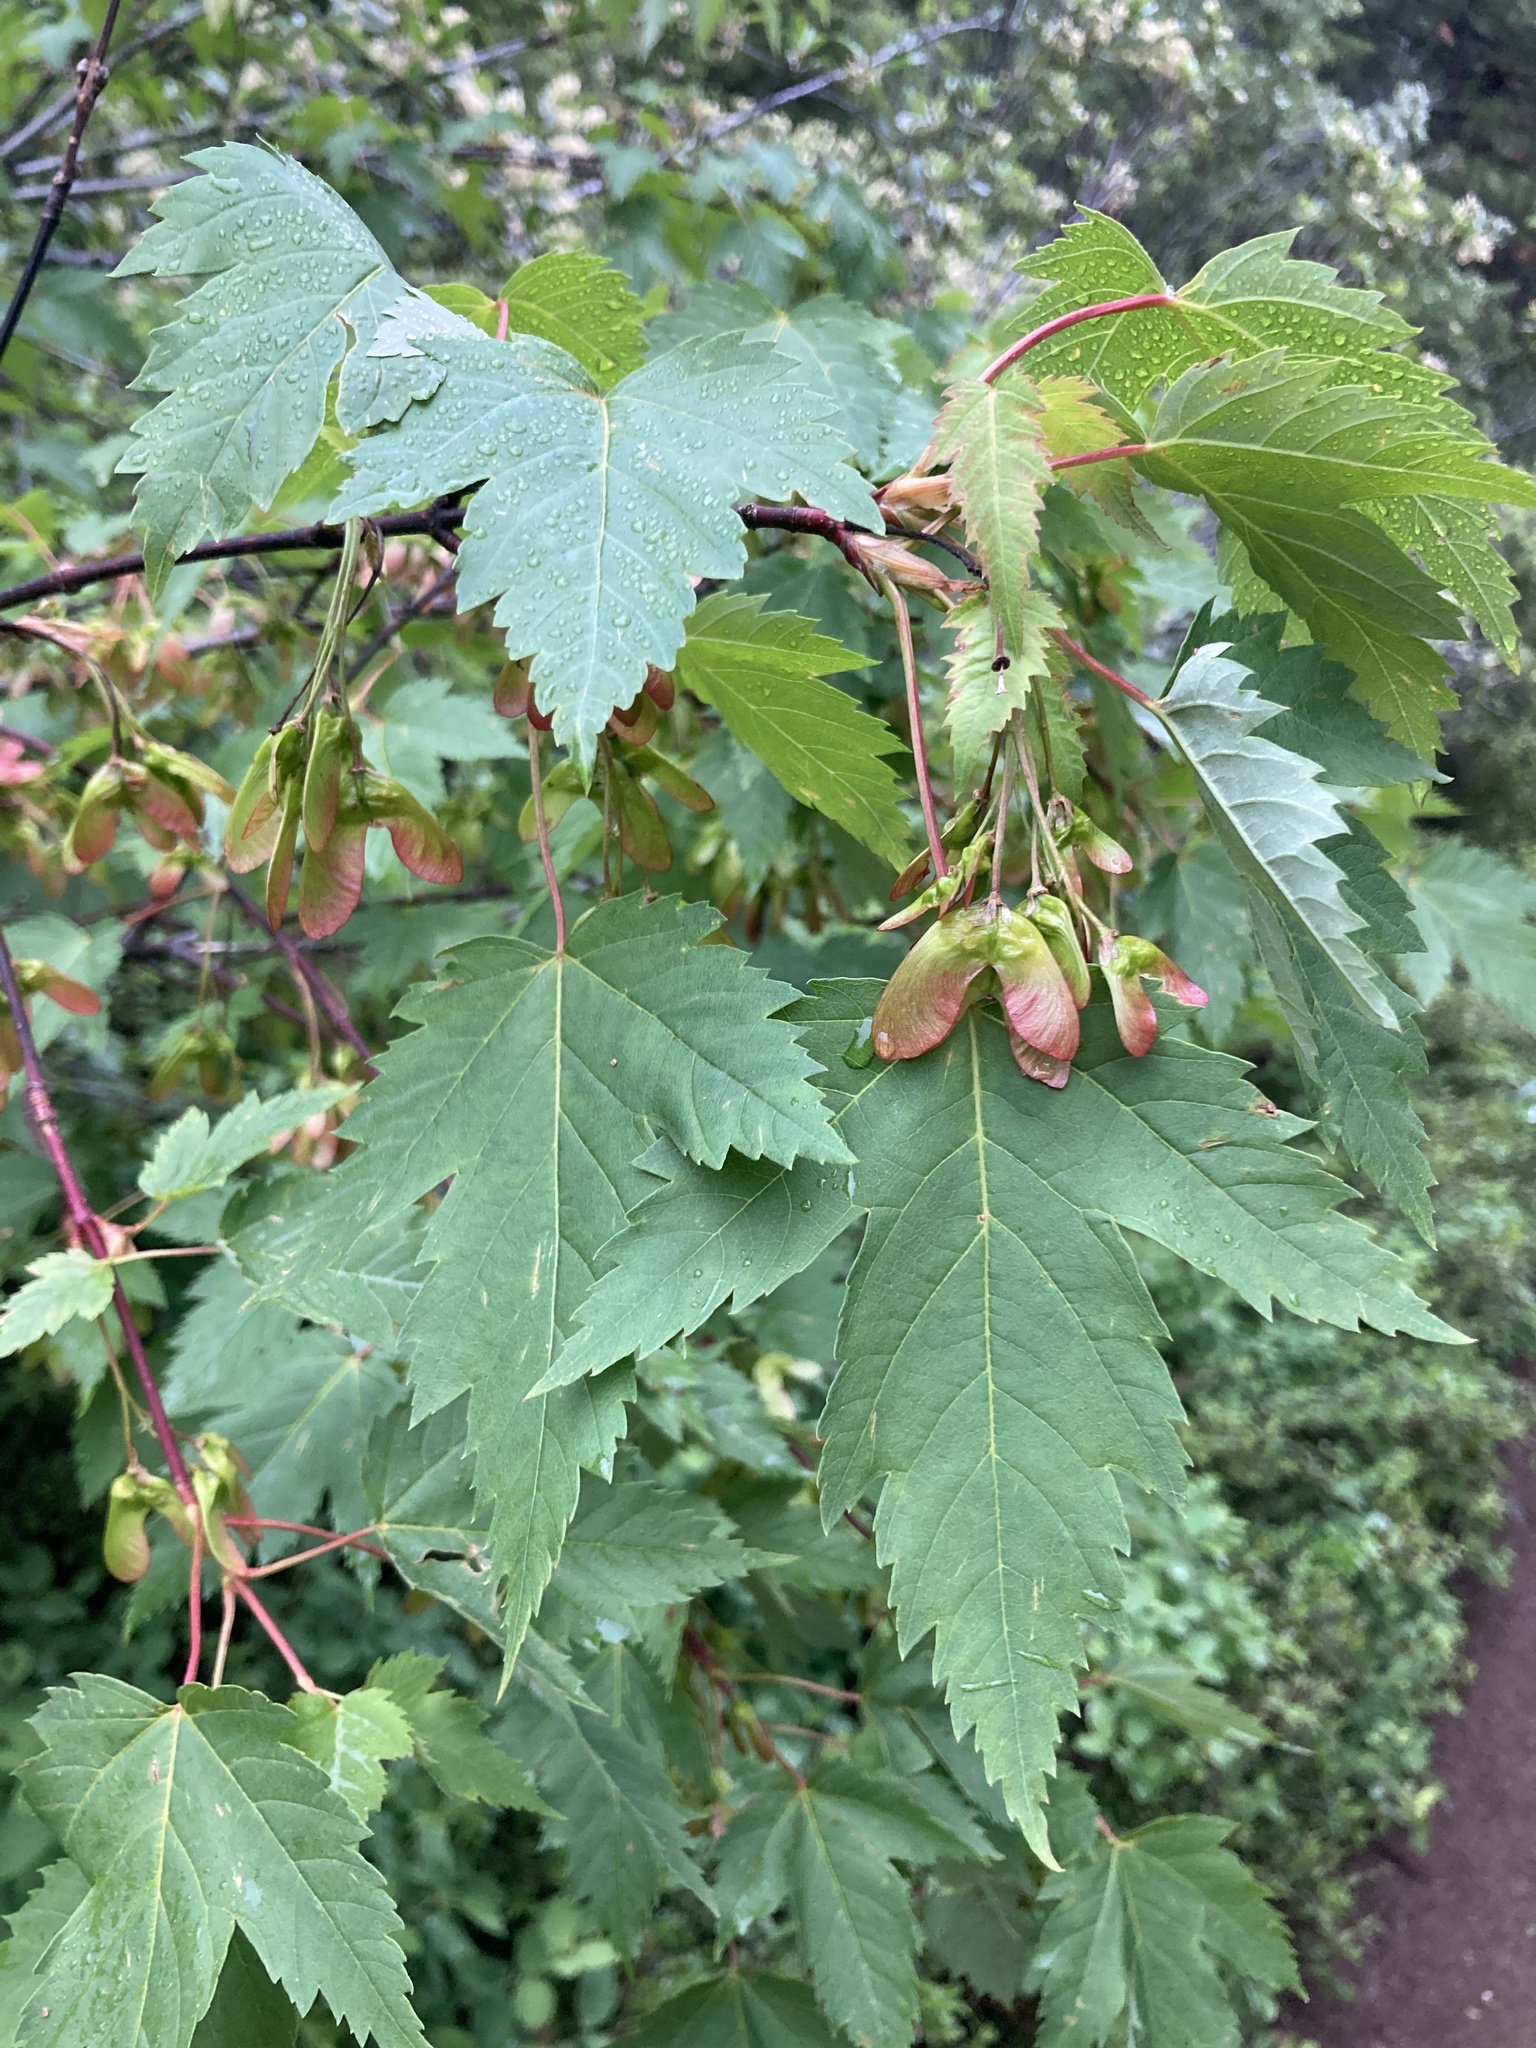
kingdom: Plantae
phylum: Tracheophyta
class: Magnoliopsida
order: Sapindales
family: Sapindaceae
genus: Acer
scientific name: Acer glabrum
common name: Rocky mountain maple
